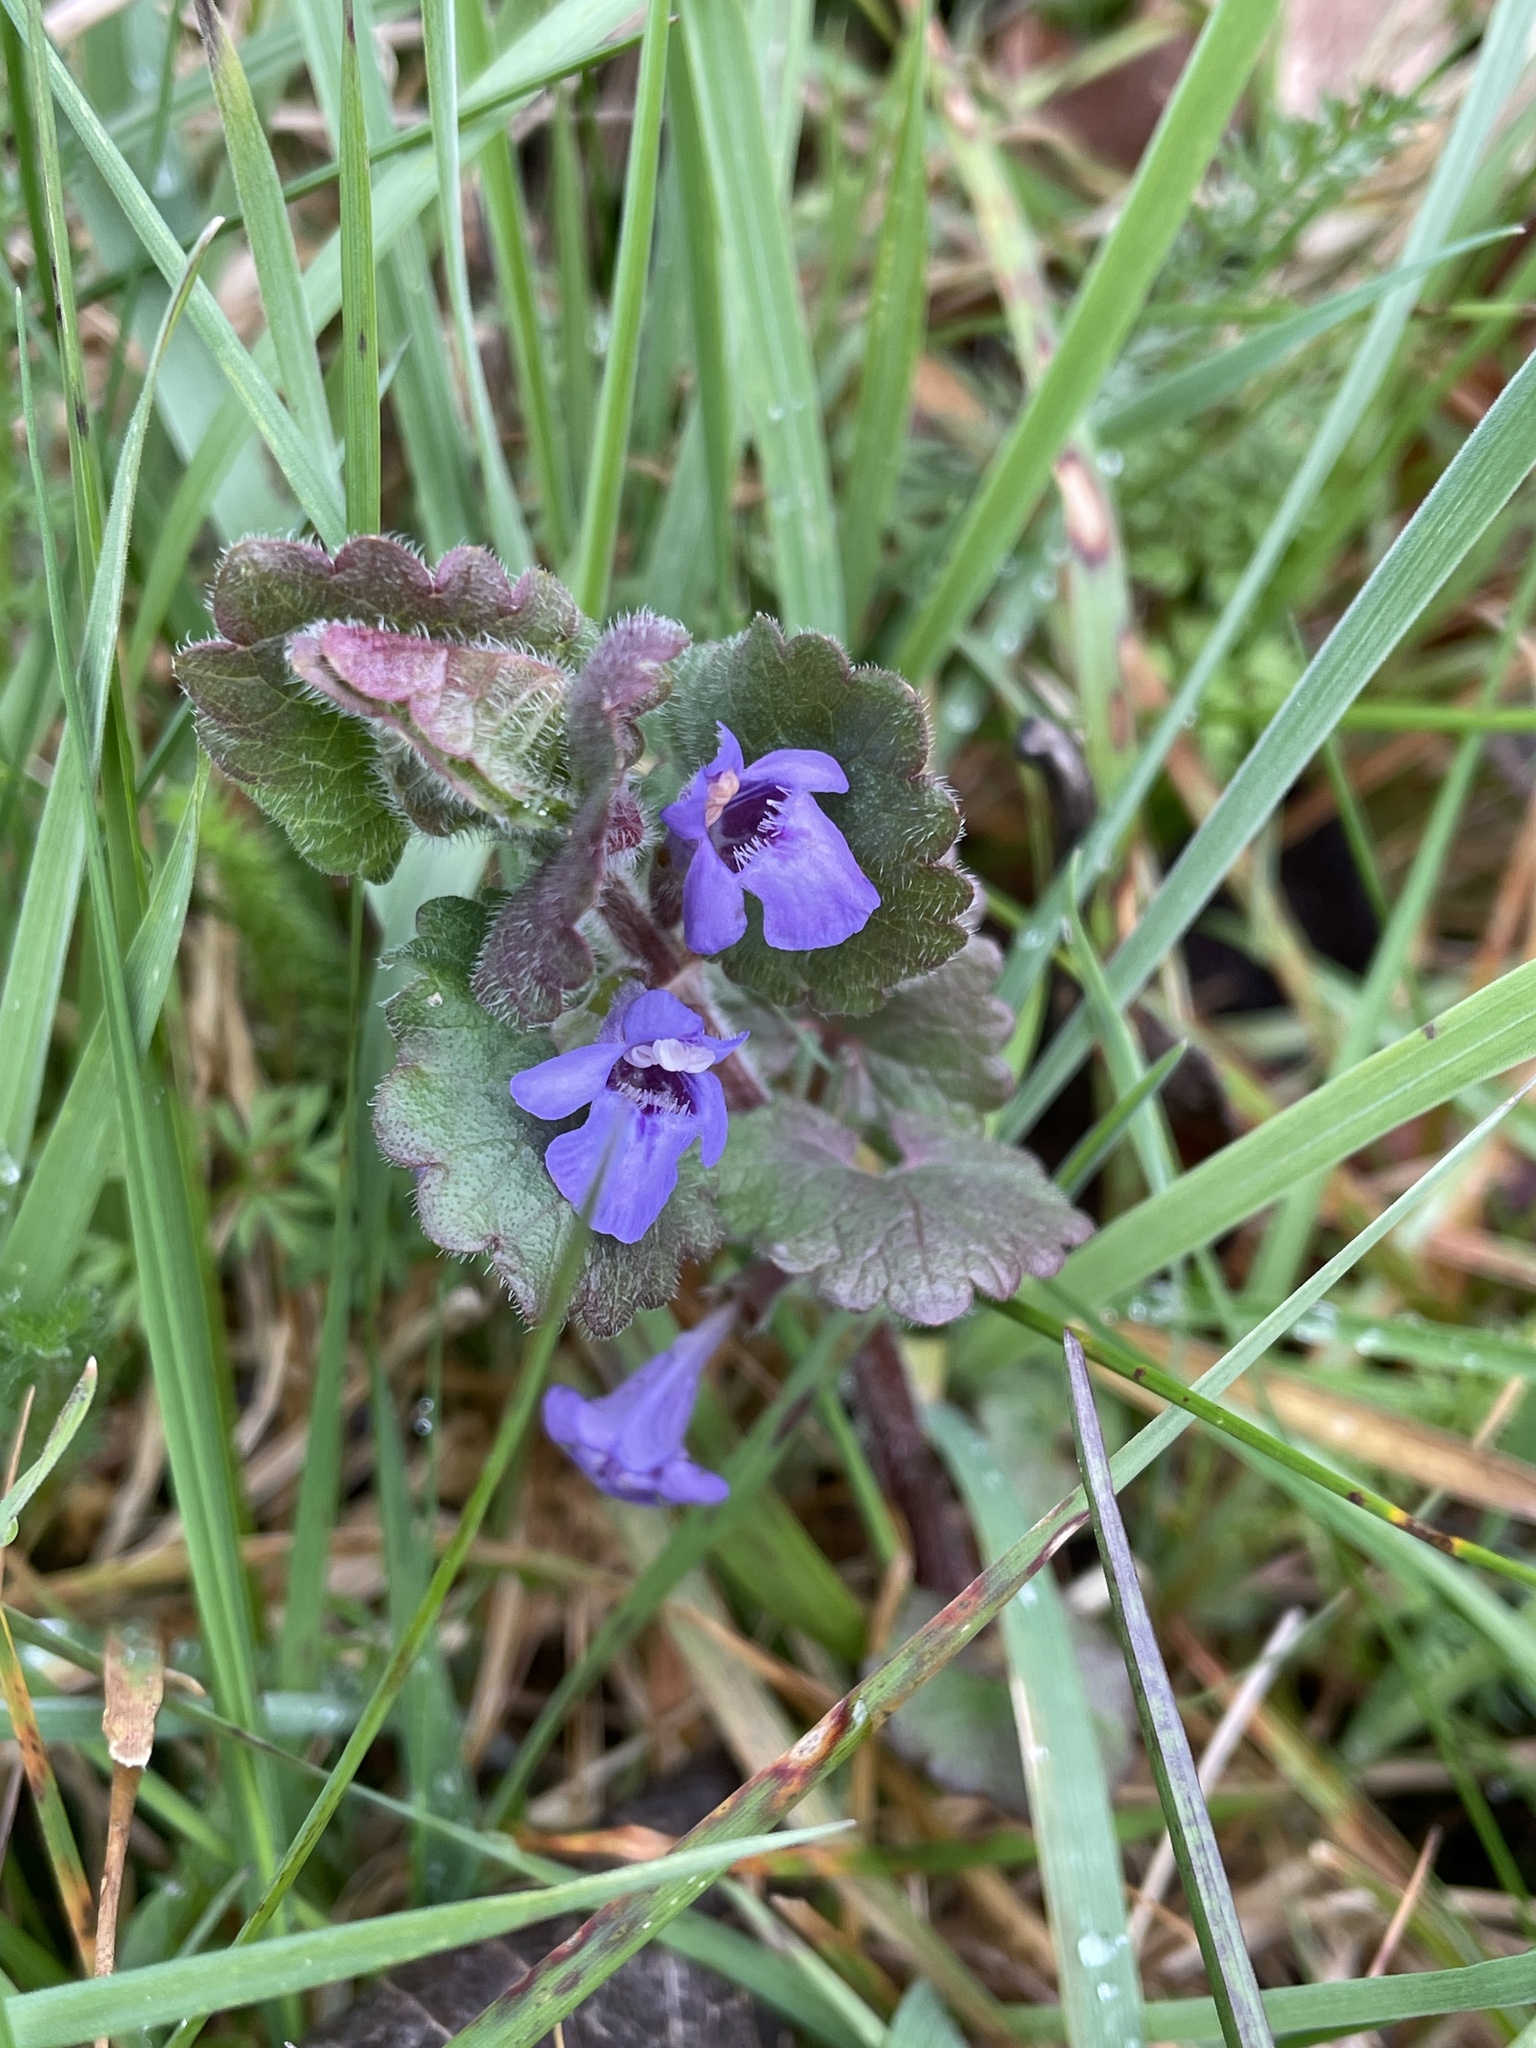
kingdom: Plantae
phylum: Tracheophyta
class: Magnoliopsida
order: Lamiales
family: Lamiaceae
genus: Glechoma
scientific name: Glechoma hederacea
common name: Ground ivy
